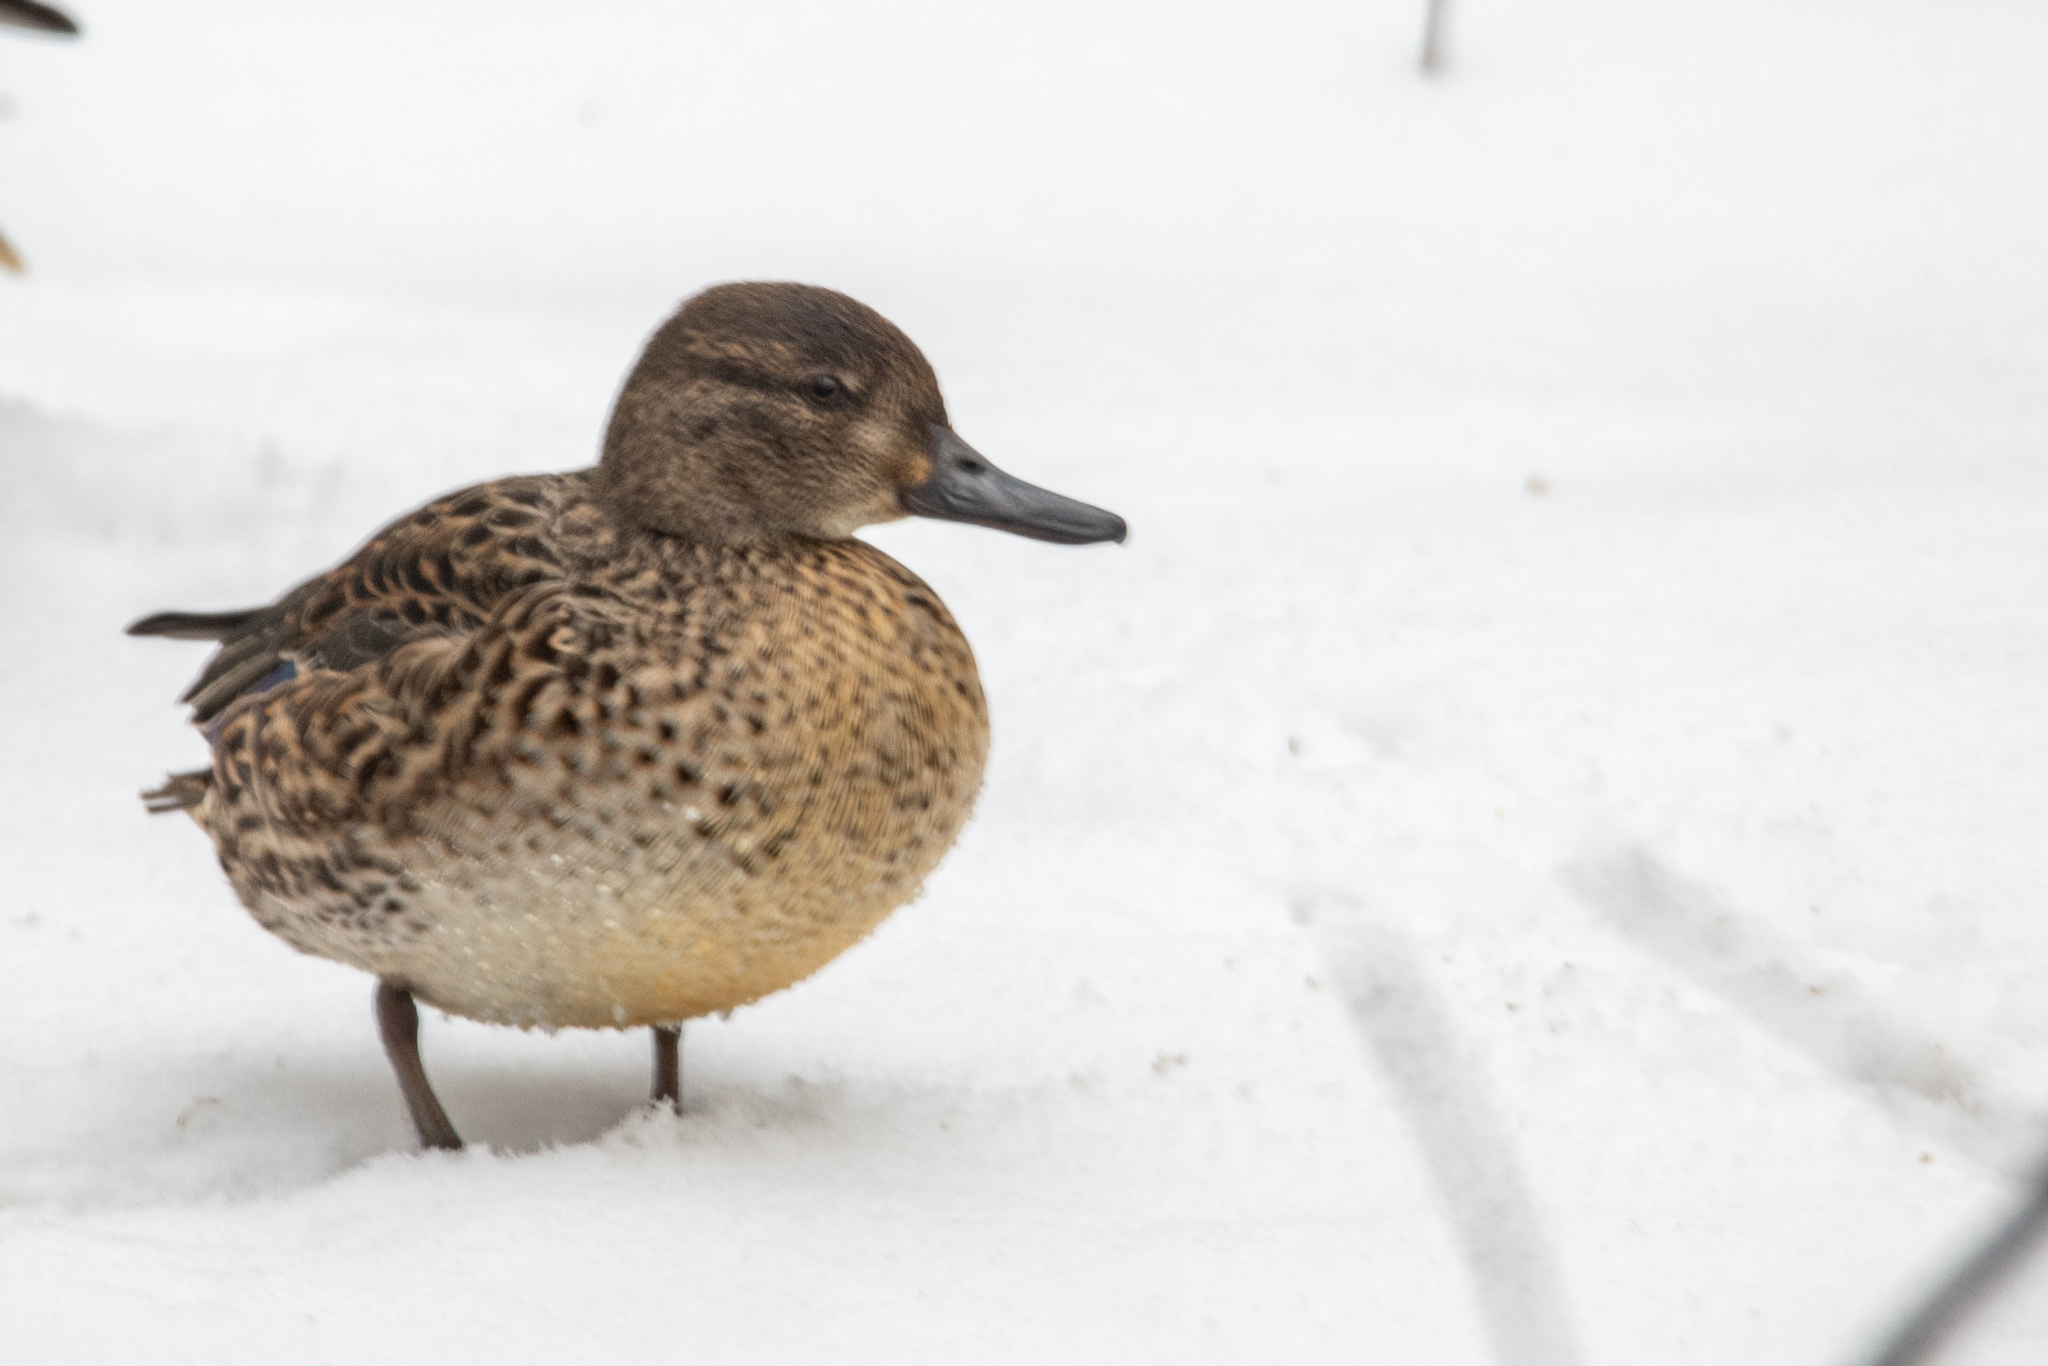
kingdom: Animalia
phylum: Chordata
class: Aves
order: Anseriformes
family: Anatidae
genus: Anas
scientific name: Anas crecca
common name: Eurasian teal
